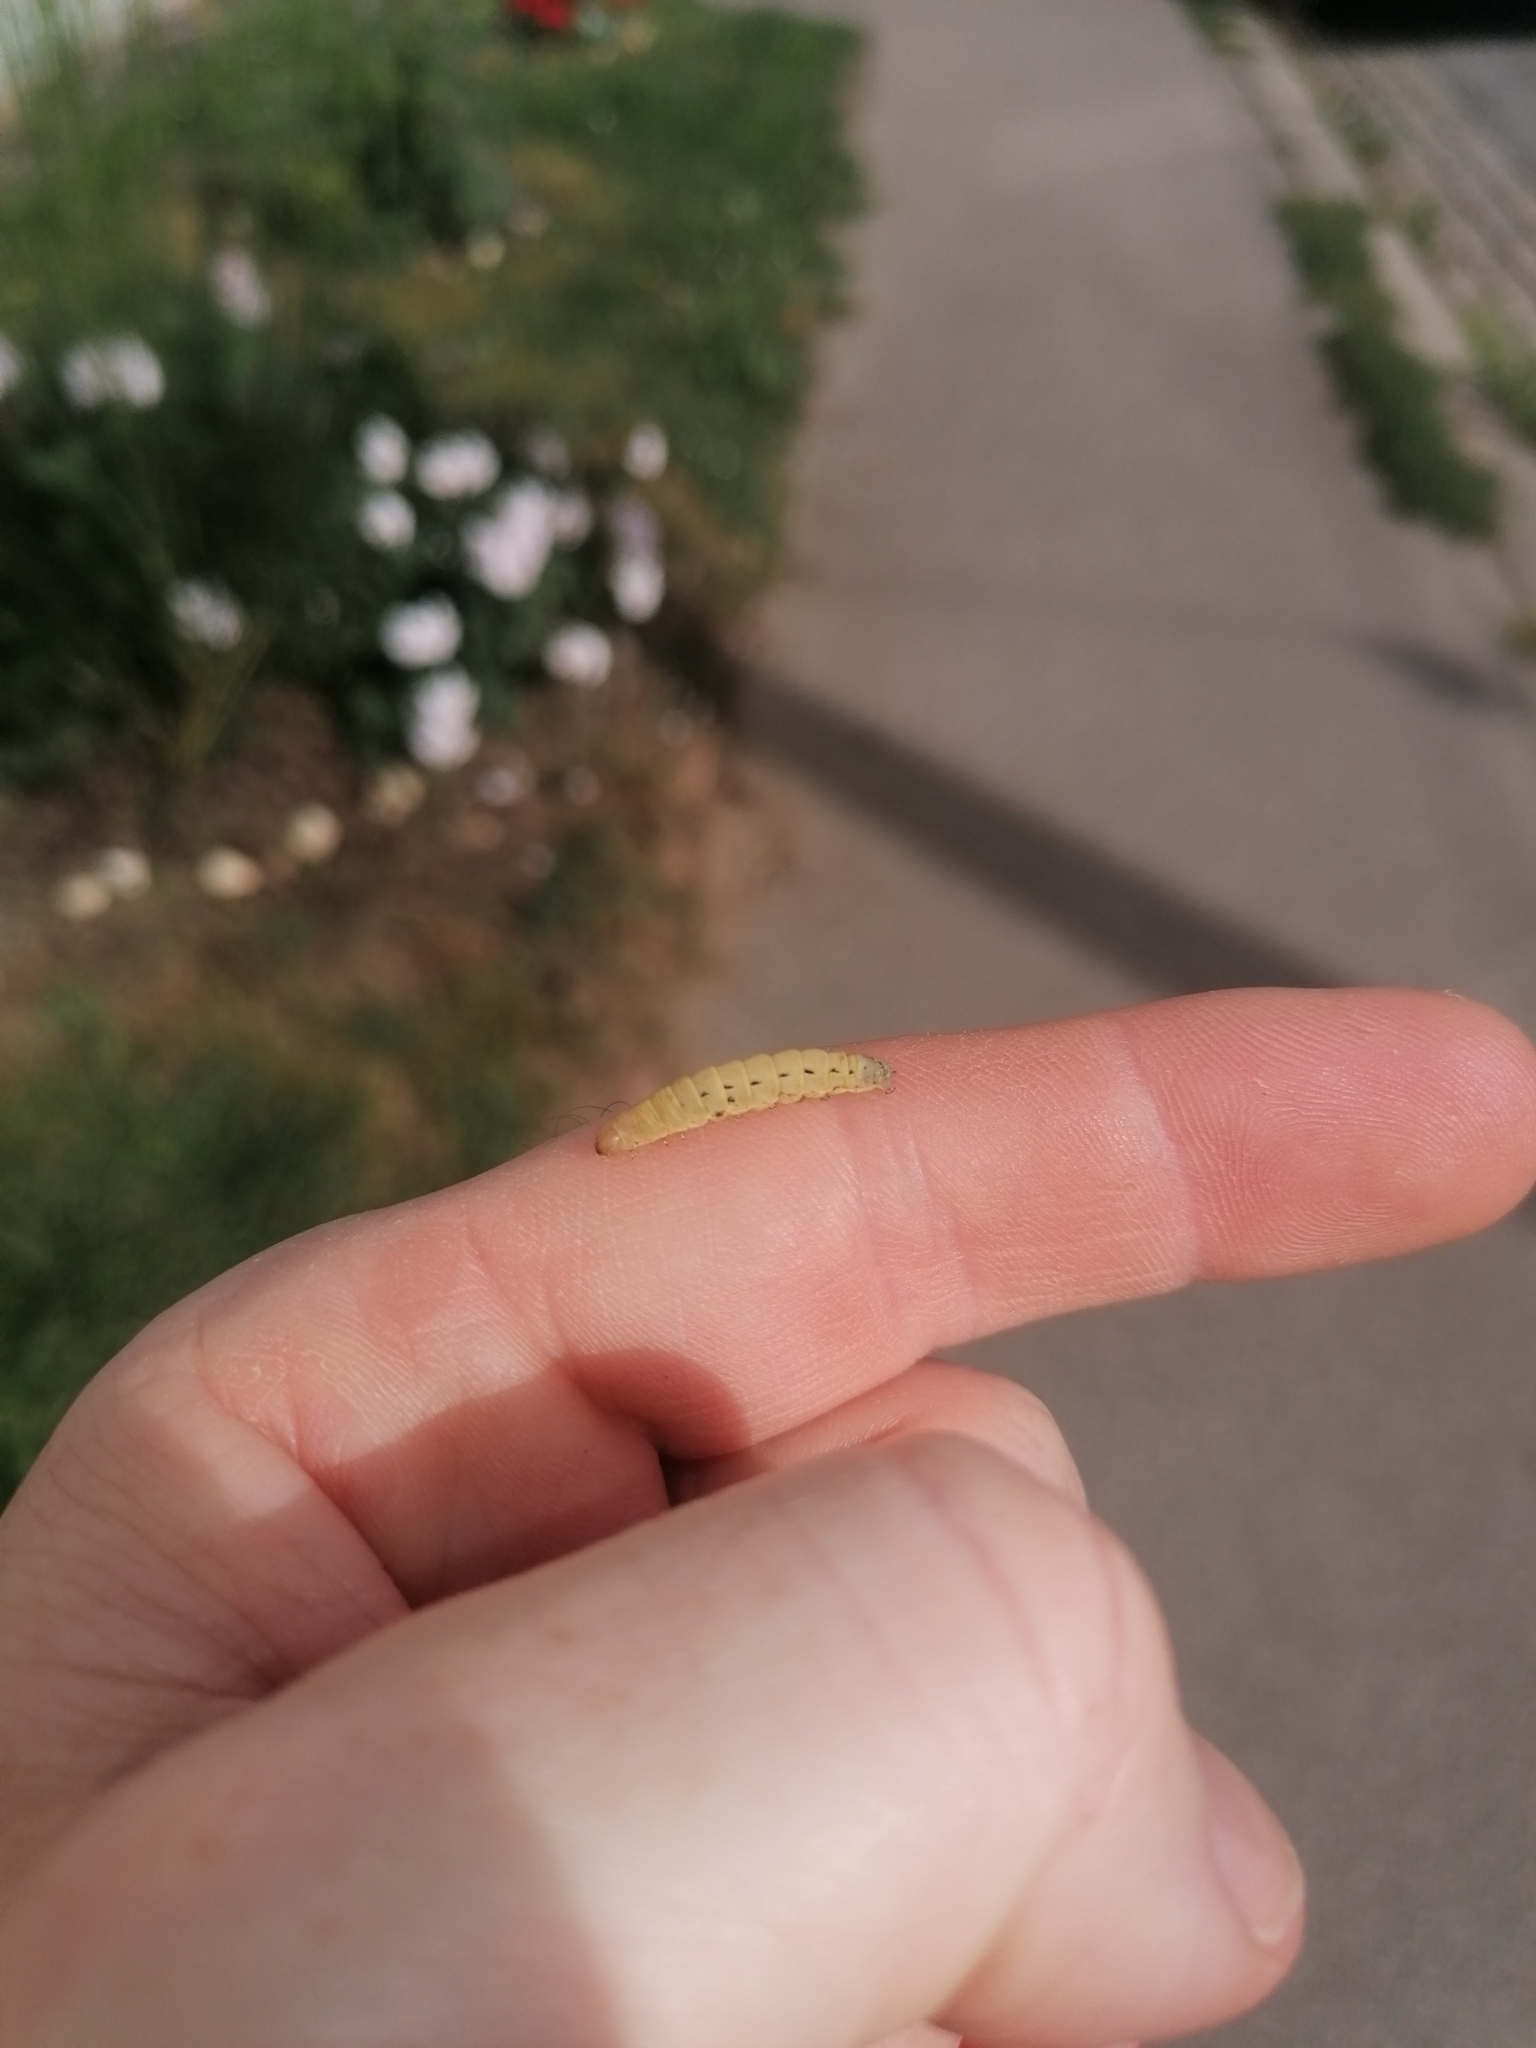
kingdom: Animalia
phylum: Arthropoda
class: Insecta
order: Lepidoptera
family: Noctuidae
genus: Noctua
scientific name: Noctua pronuba
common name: Large yellow underwing
